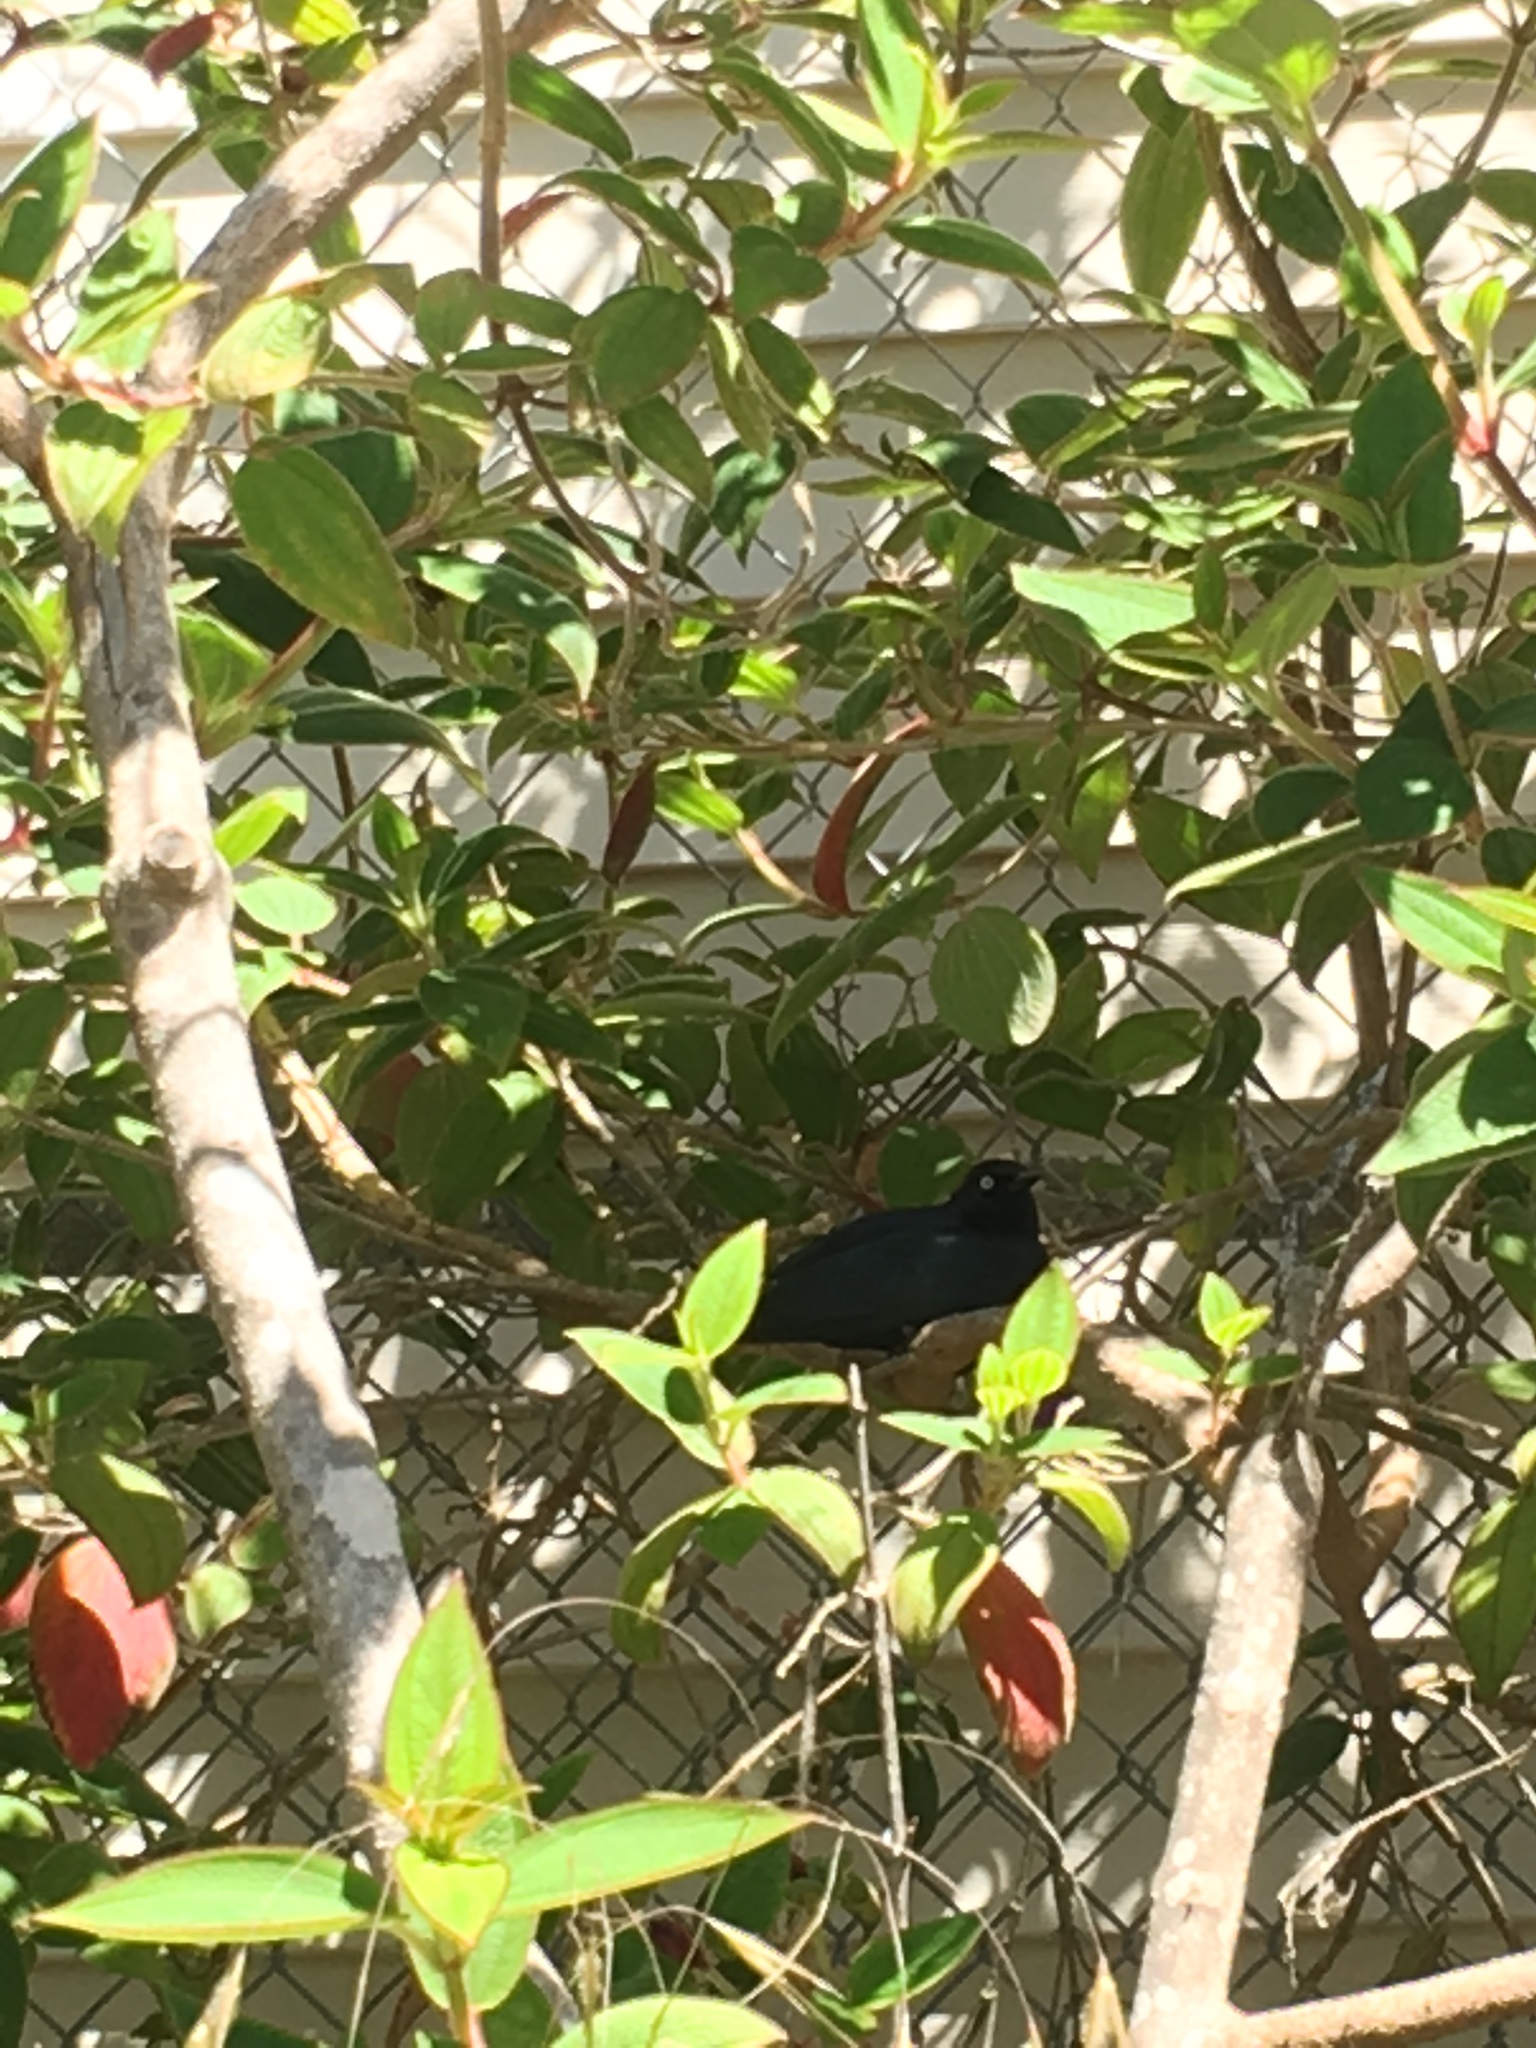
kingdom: Animalia
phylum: Chordata
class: Aves
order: Passeriformes
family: Icteridae
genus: Euphagus
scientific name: Euphagus cyanocephalus
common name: Brewer's blackbird
